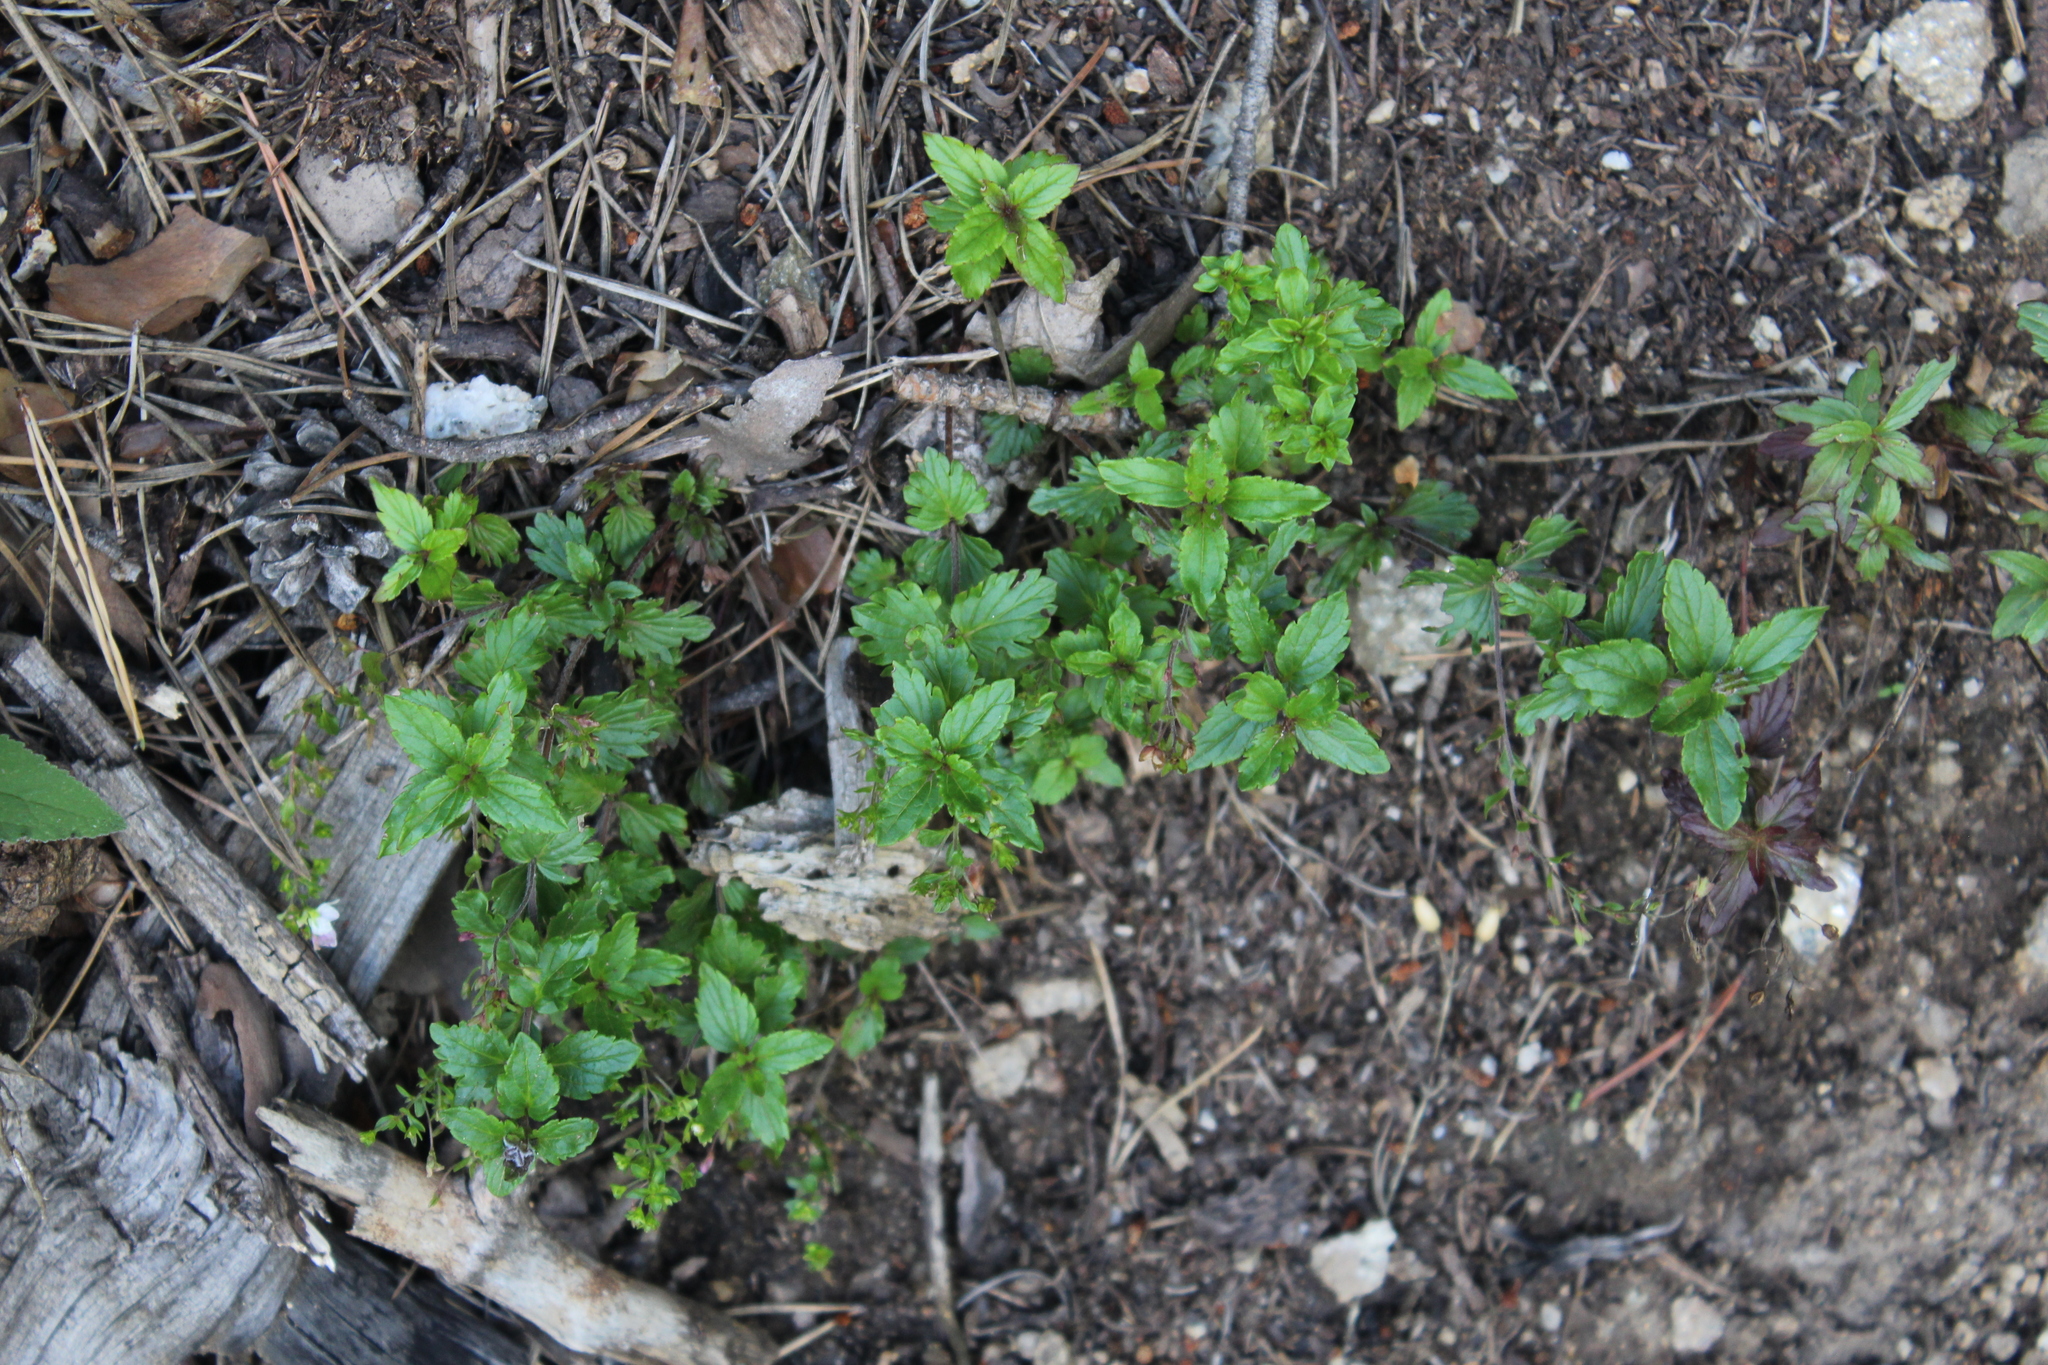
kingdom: Plantae
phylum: Tracheophyta
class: Magnoliopsida
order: Lamiales
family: Plantaginaceae
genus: Veronica
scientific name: Veronica peduncularis
